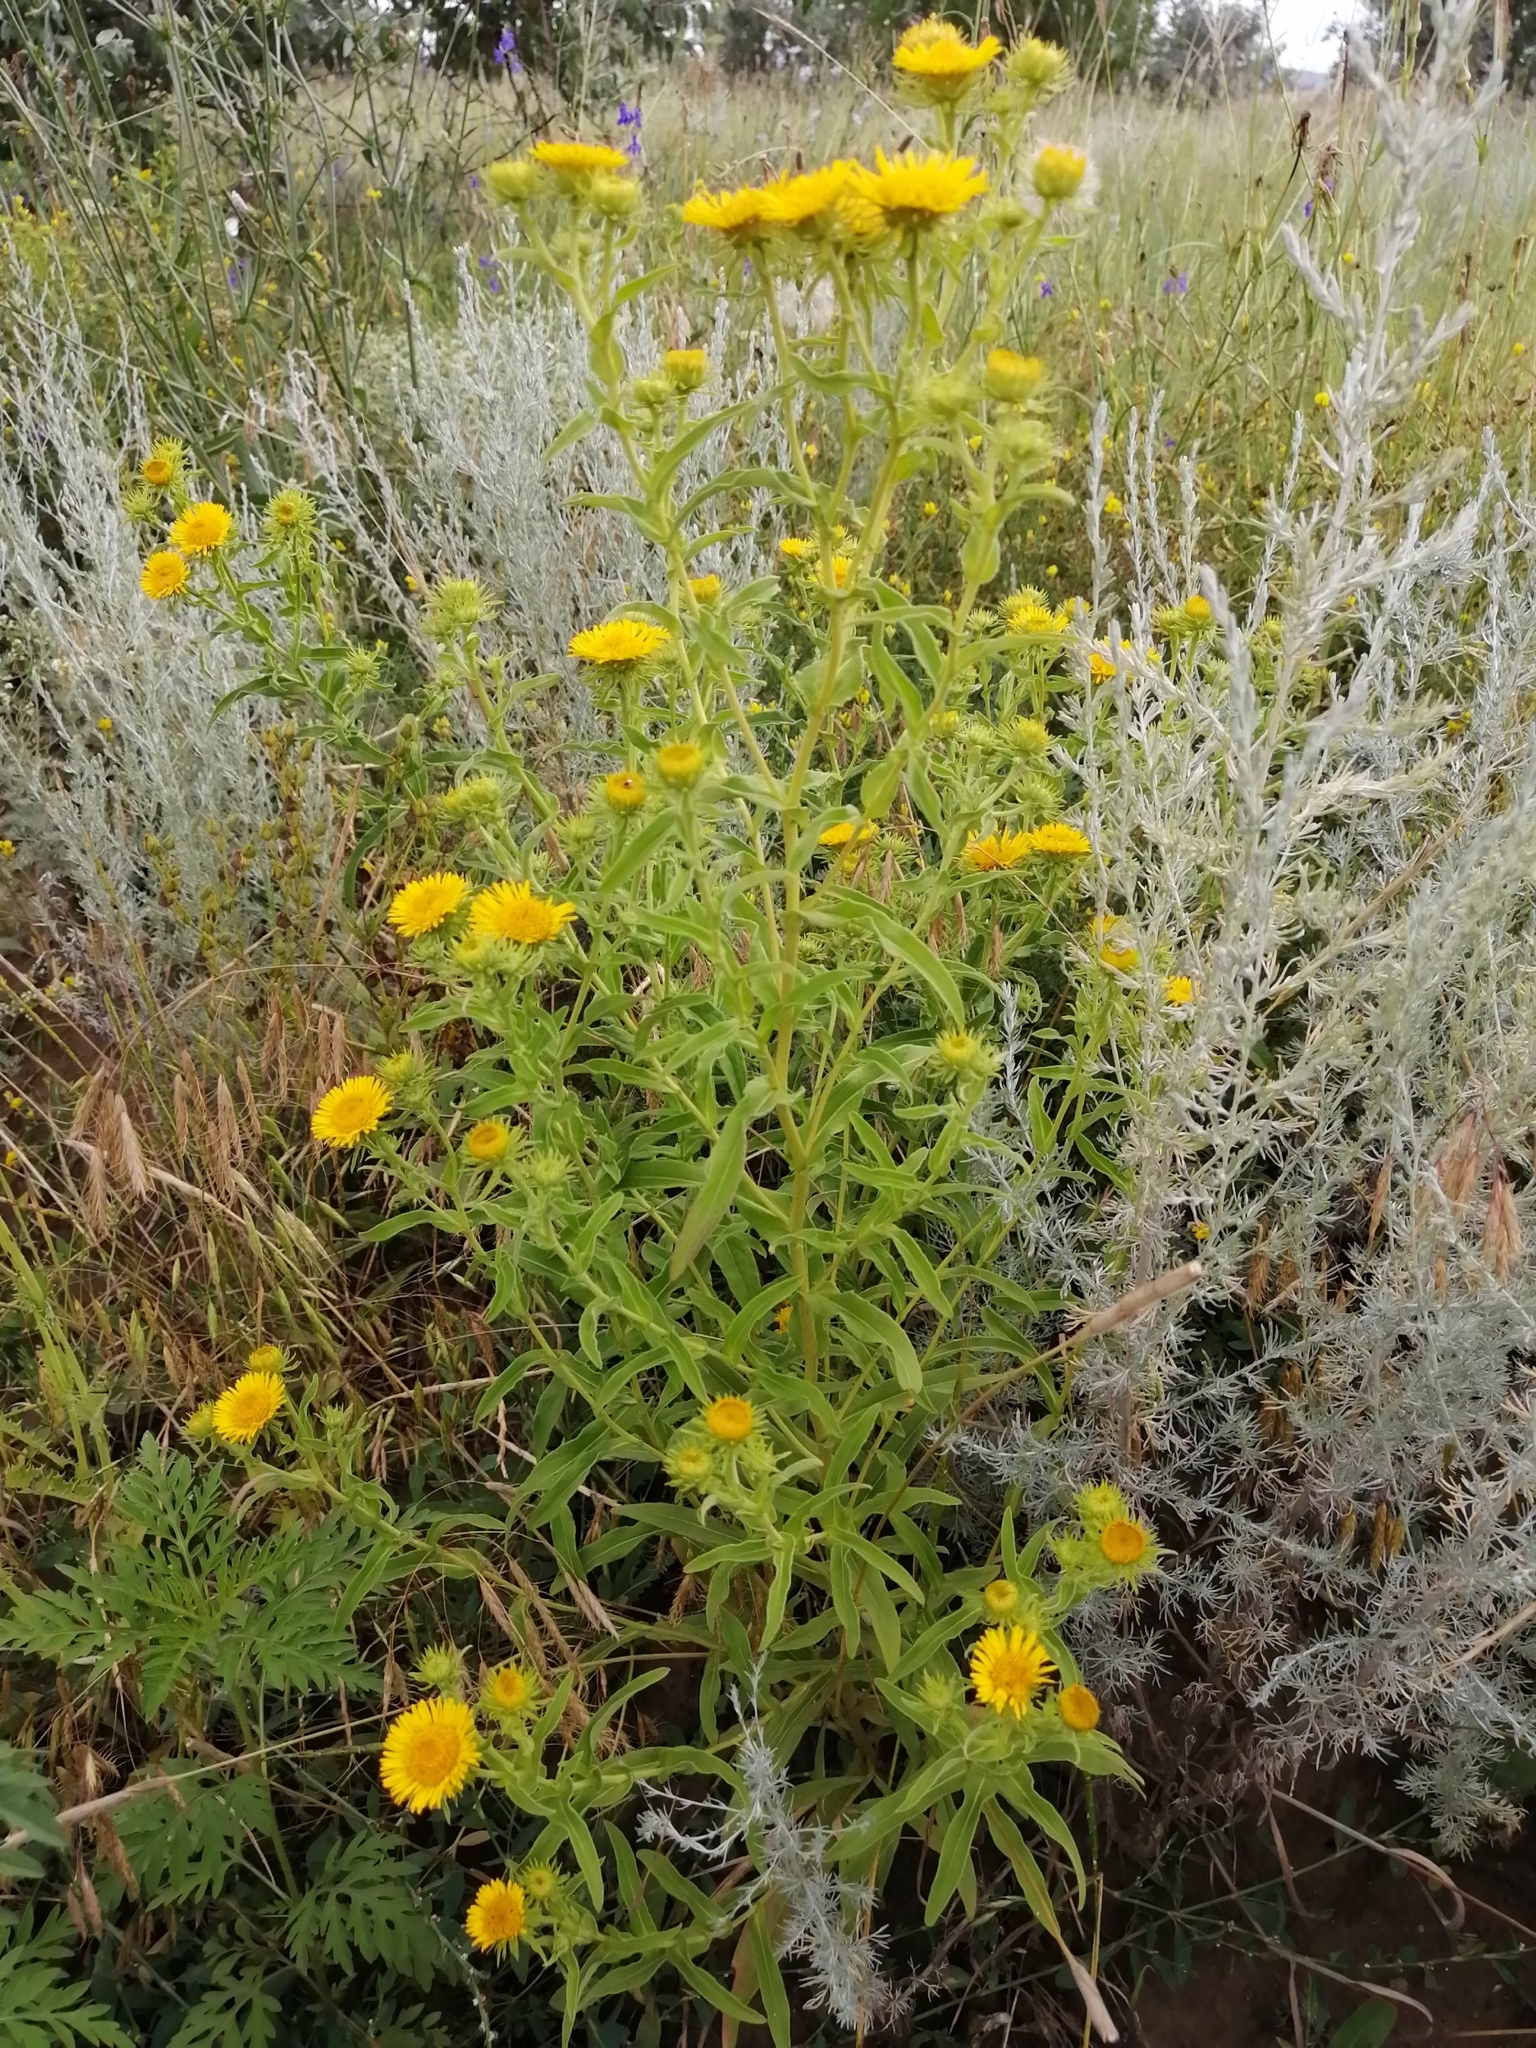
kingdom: Plantae
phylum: Tracheophyta
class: Magnoliopsida
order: Asterales
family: Asteraceae
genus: Pentanema
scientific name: Pentanema britannicum
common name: British elecampane
